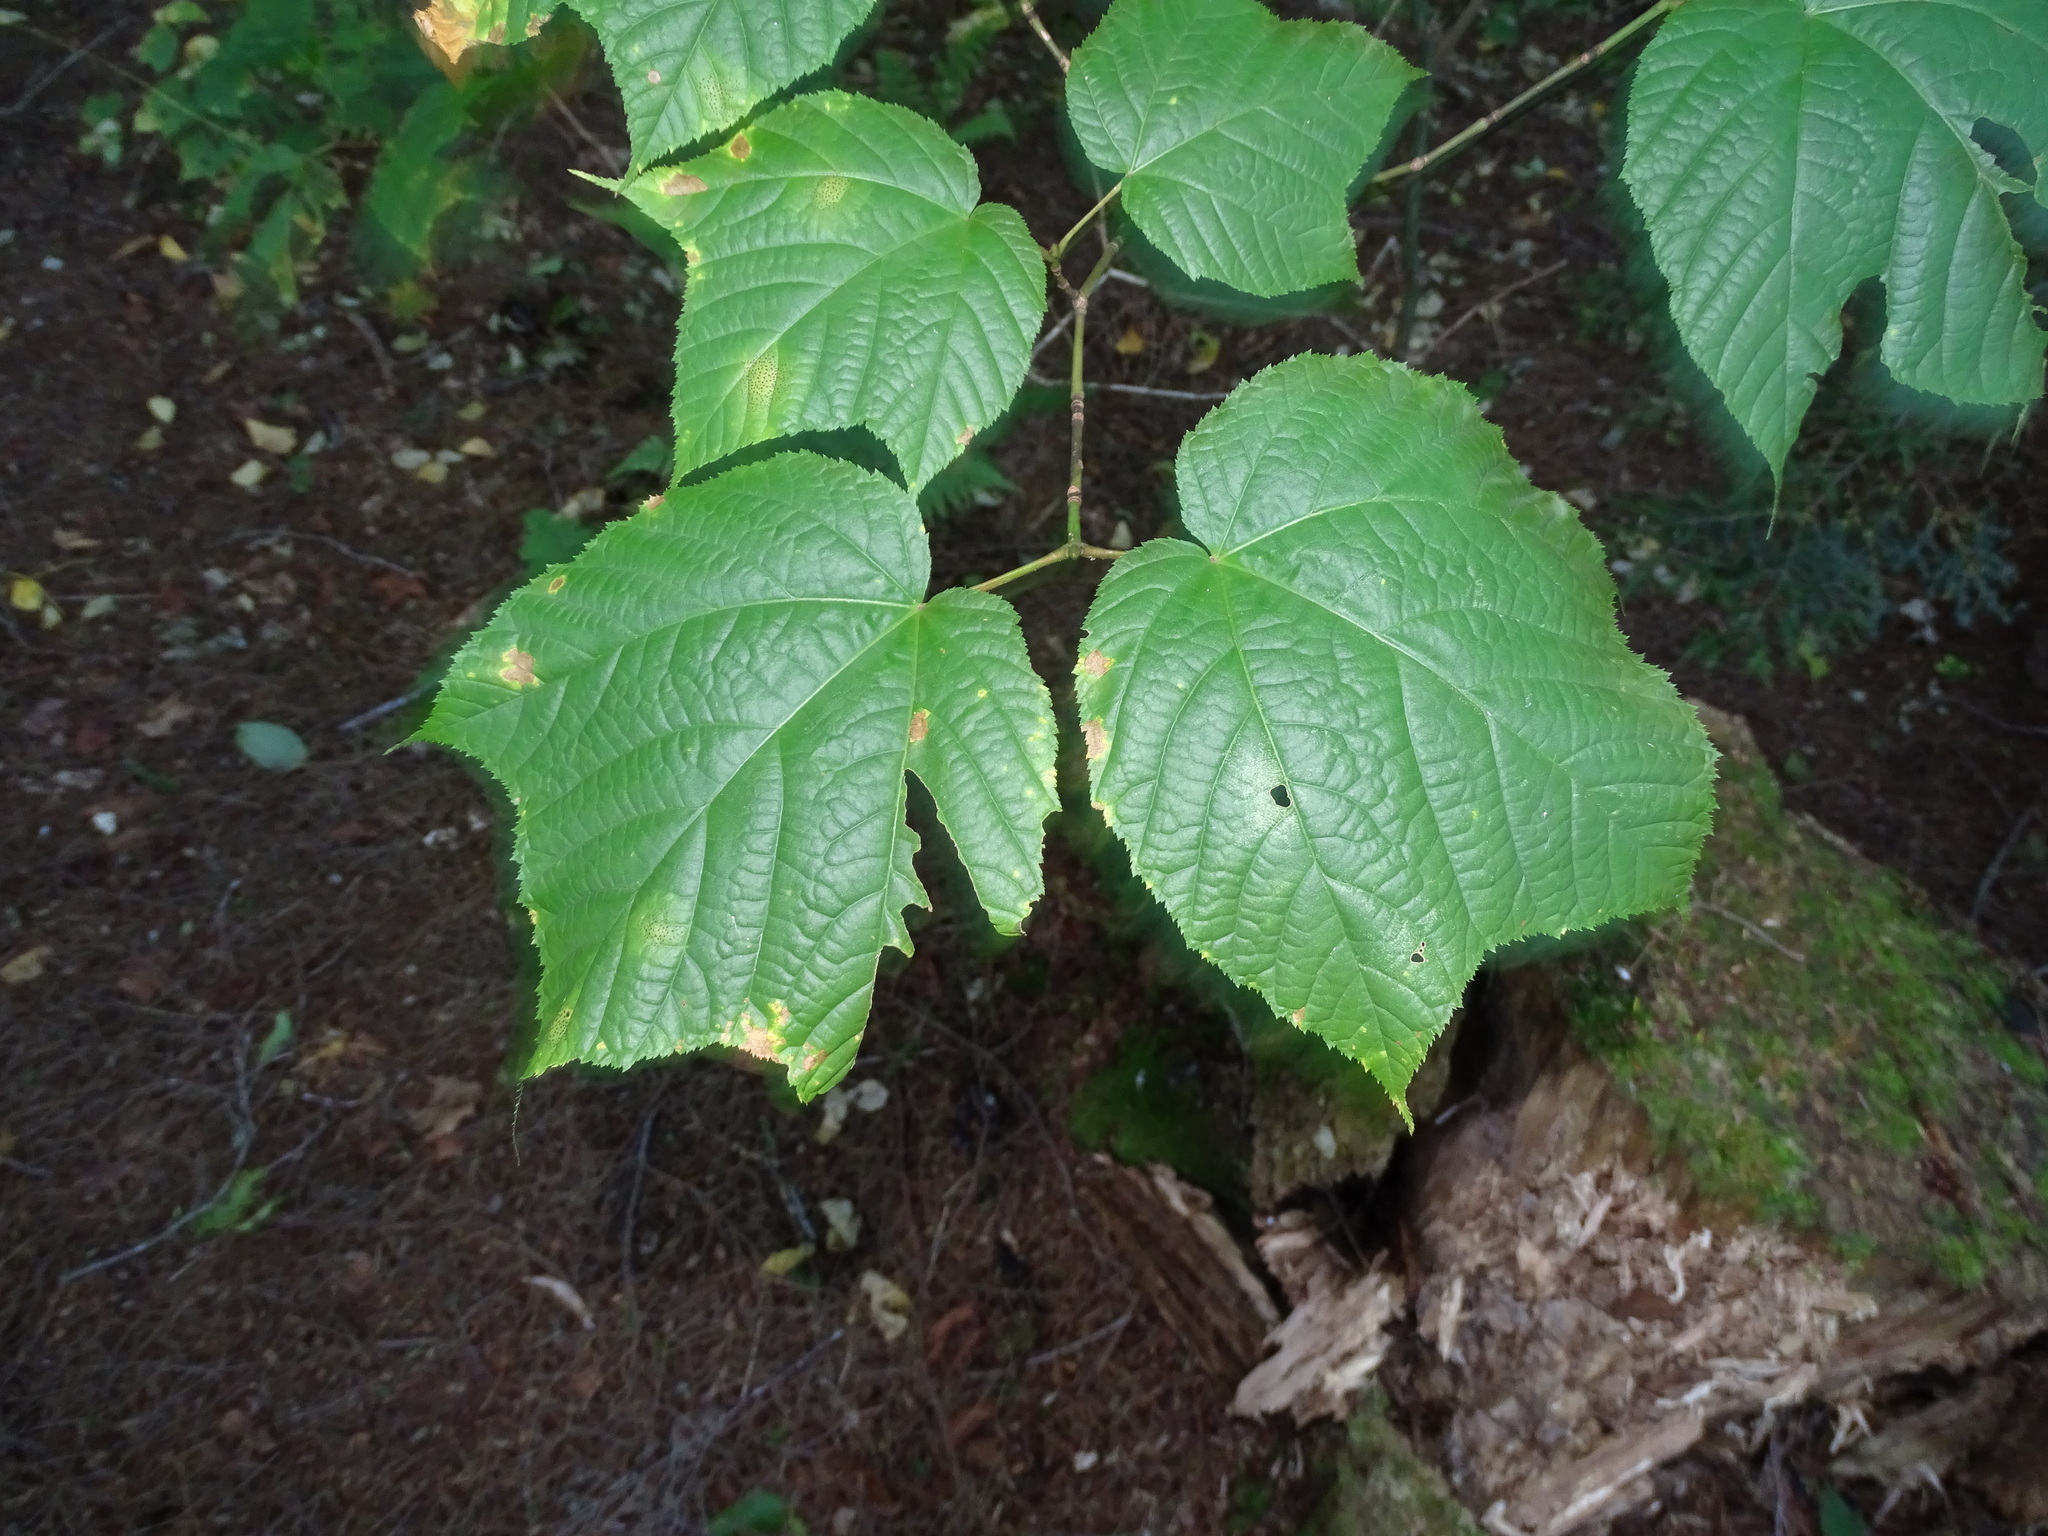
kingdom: Plantae
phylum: Tracheophyta
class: Magnoliopsida
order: Sapindales
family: Sapindaceae
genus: Acer
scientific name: Acer pensylvanicum
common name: Moosewood
